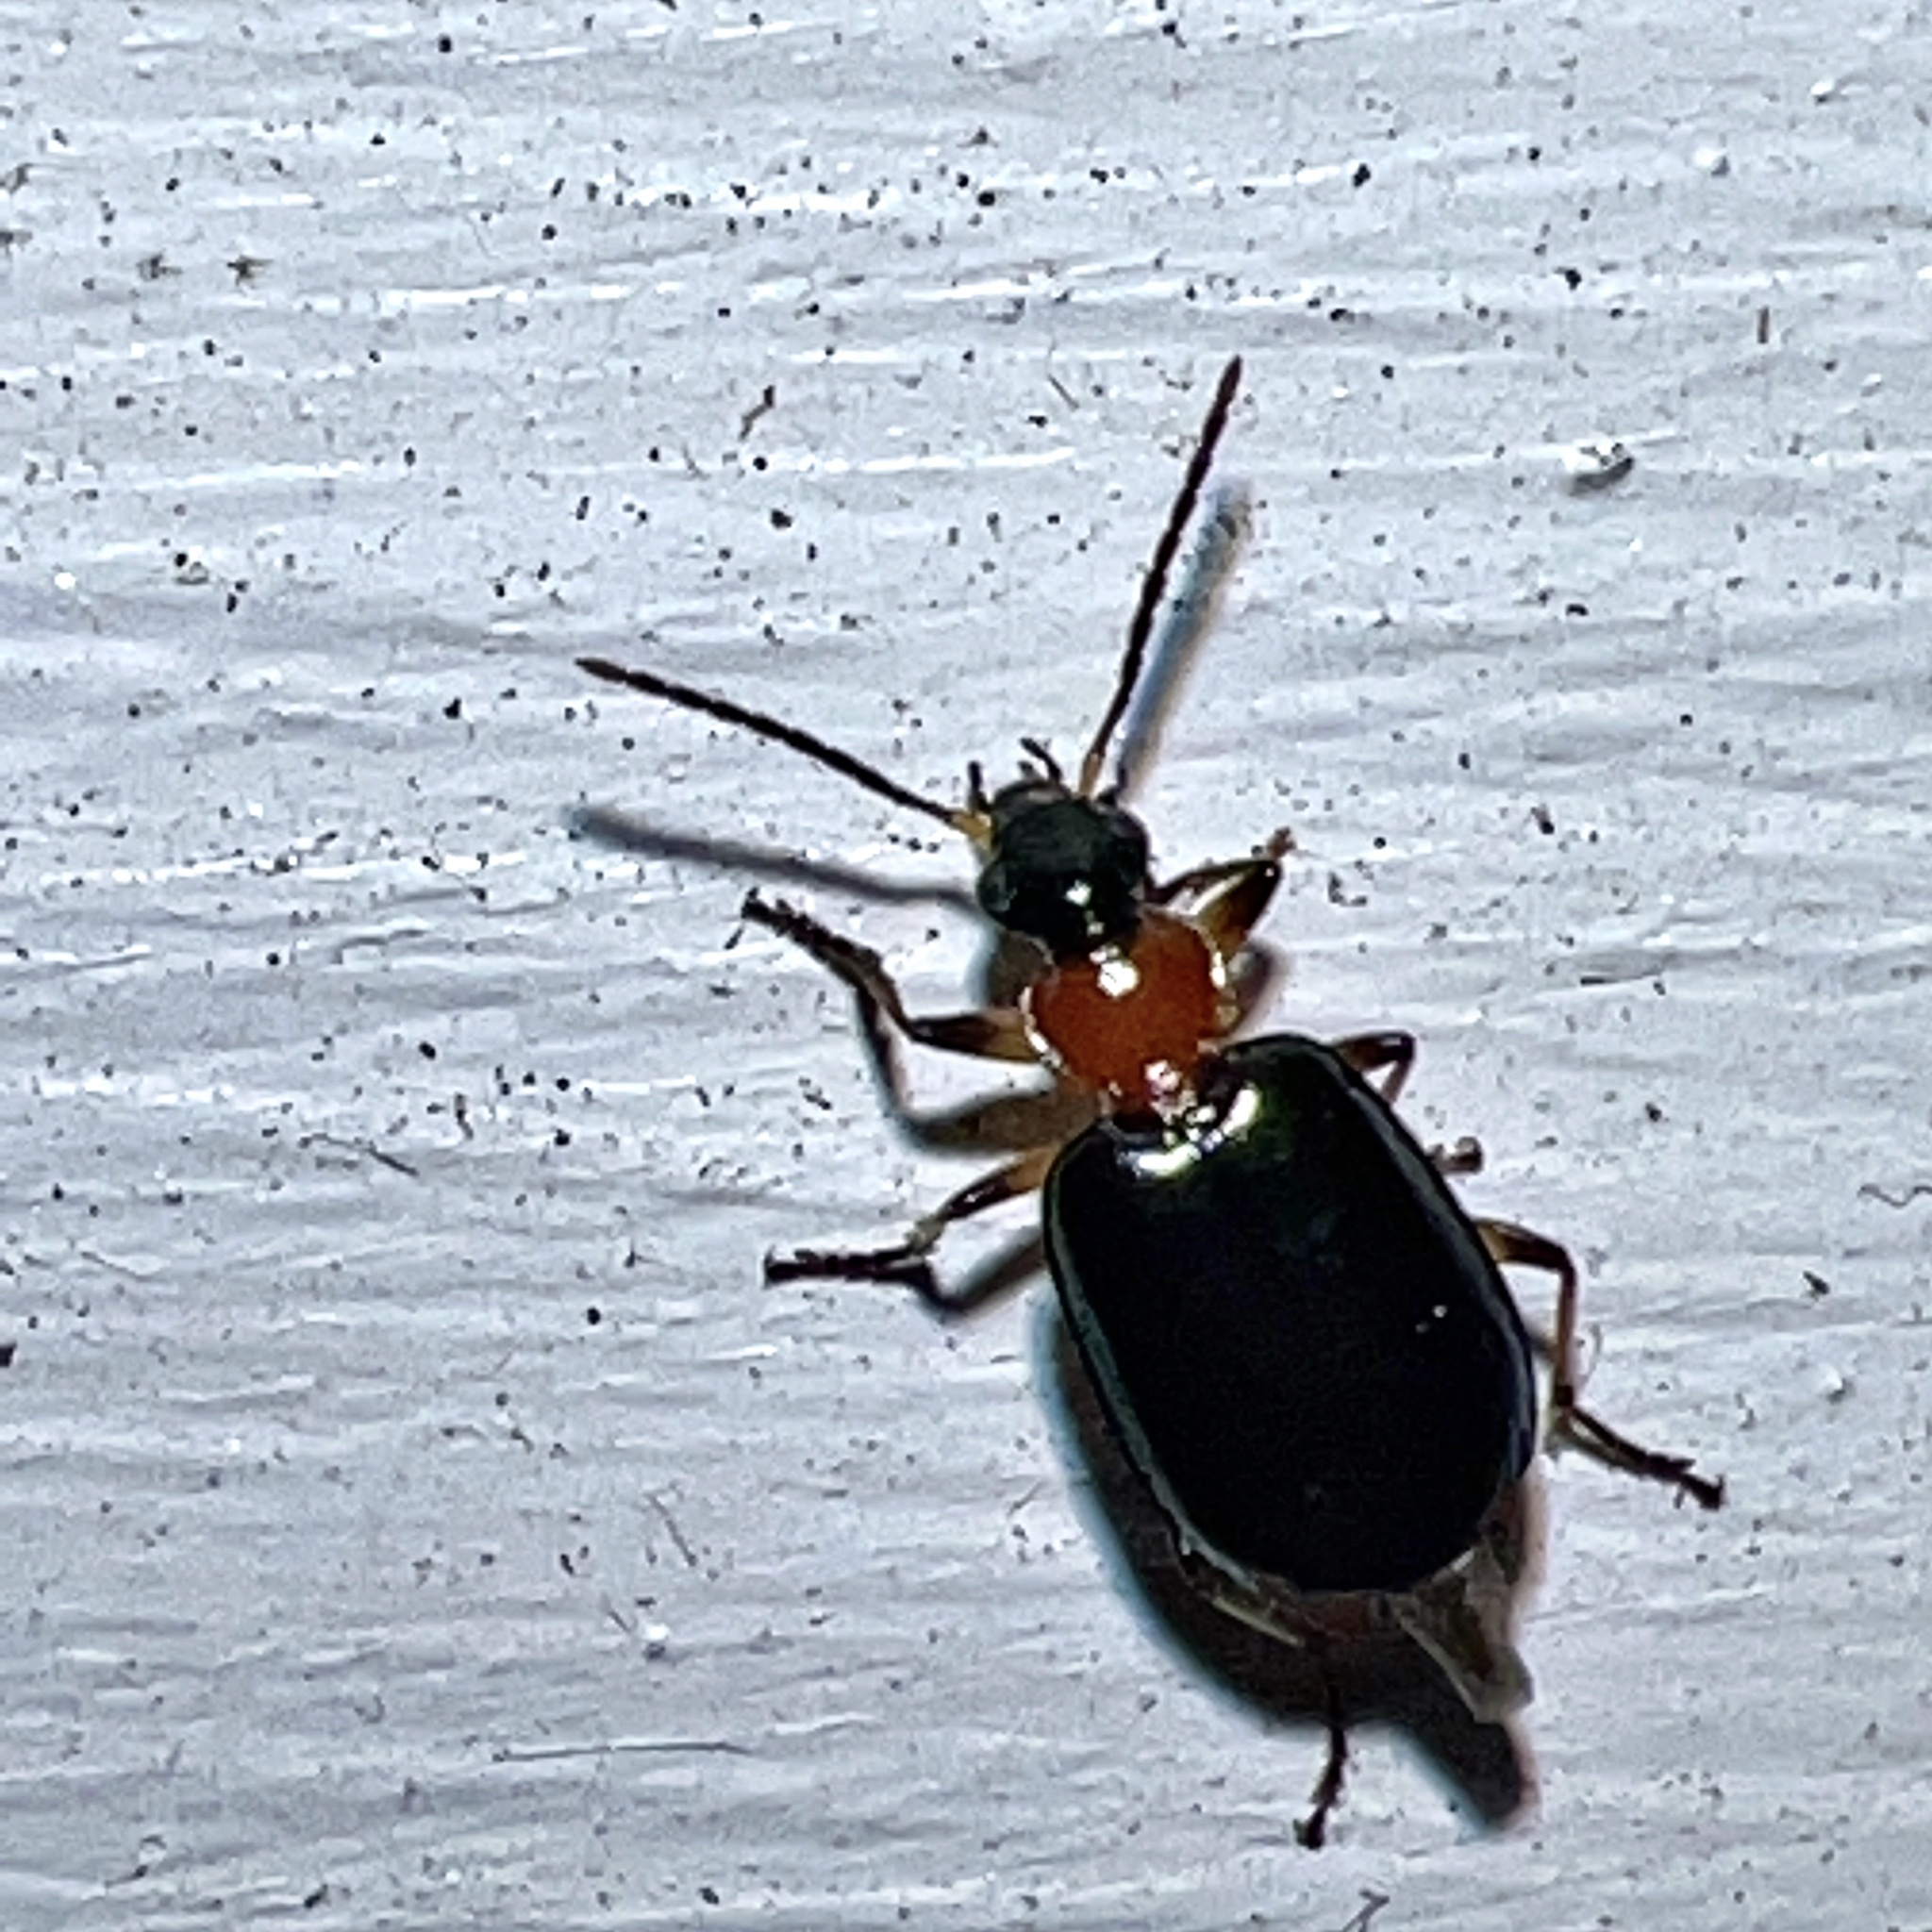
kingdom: Animalia
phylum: Arthropoda
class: Insecta
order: Coleoptera
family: Carabidae
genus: Lebia
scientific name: Lebia viridipennis
